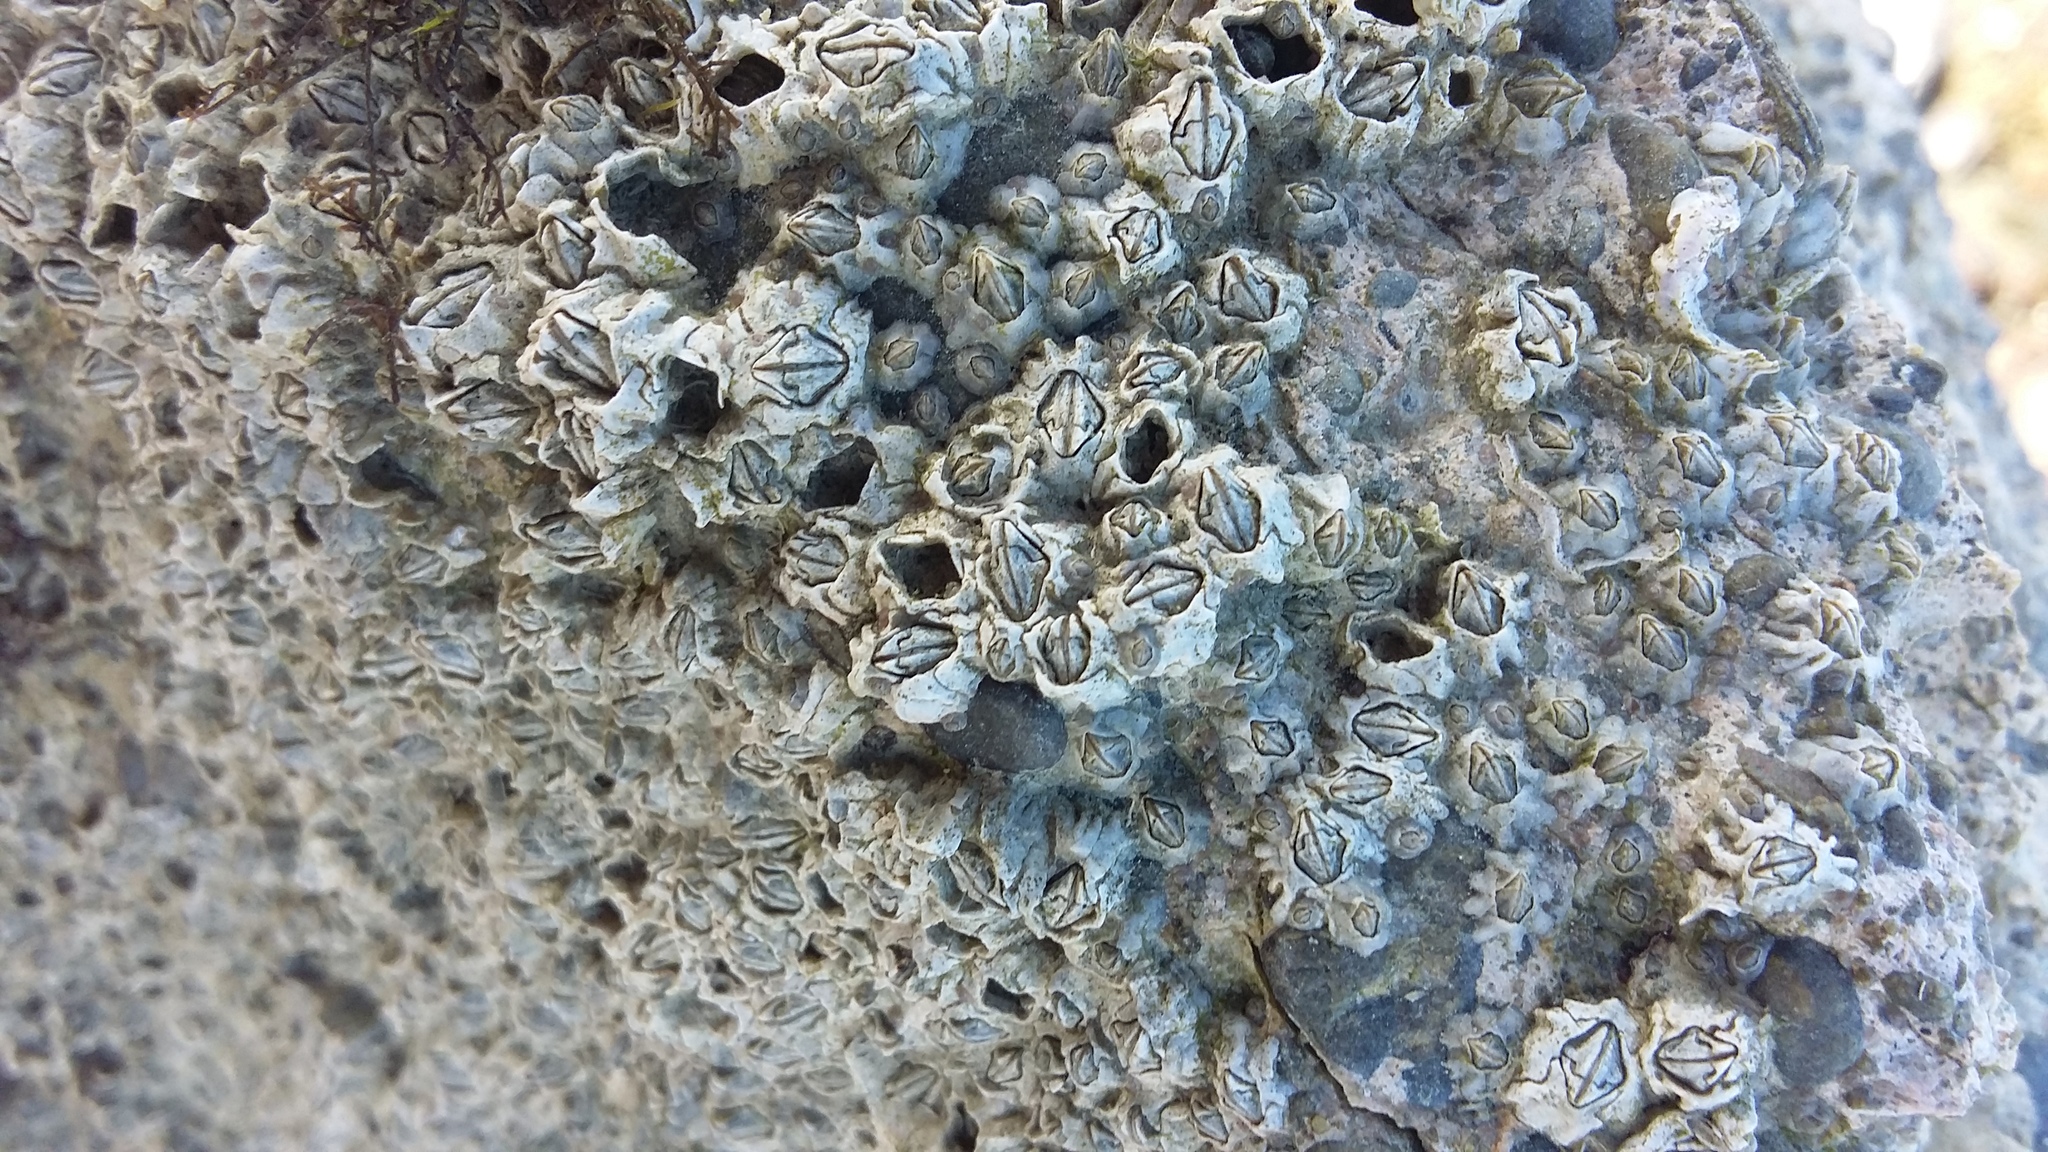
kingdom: Animalia
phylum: Arthropoda
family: Elminiidae
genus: Austrominius
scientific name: Austrominius modestus
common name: Australasian barnacle
